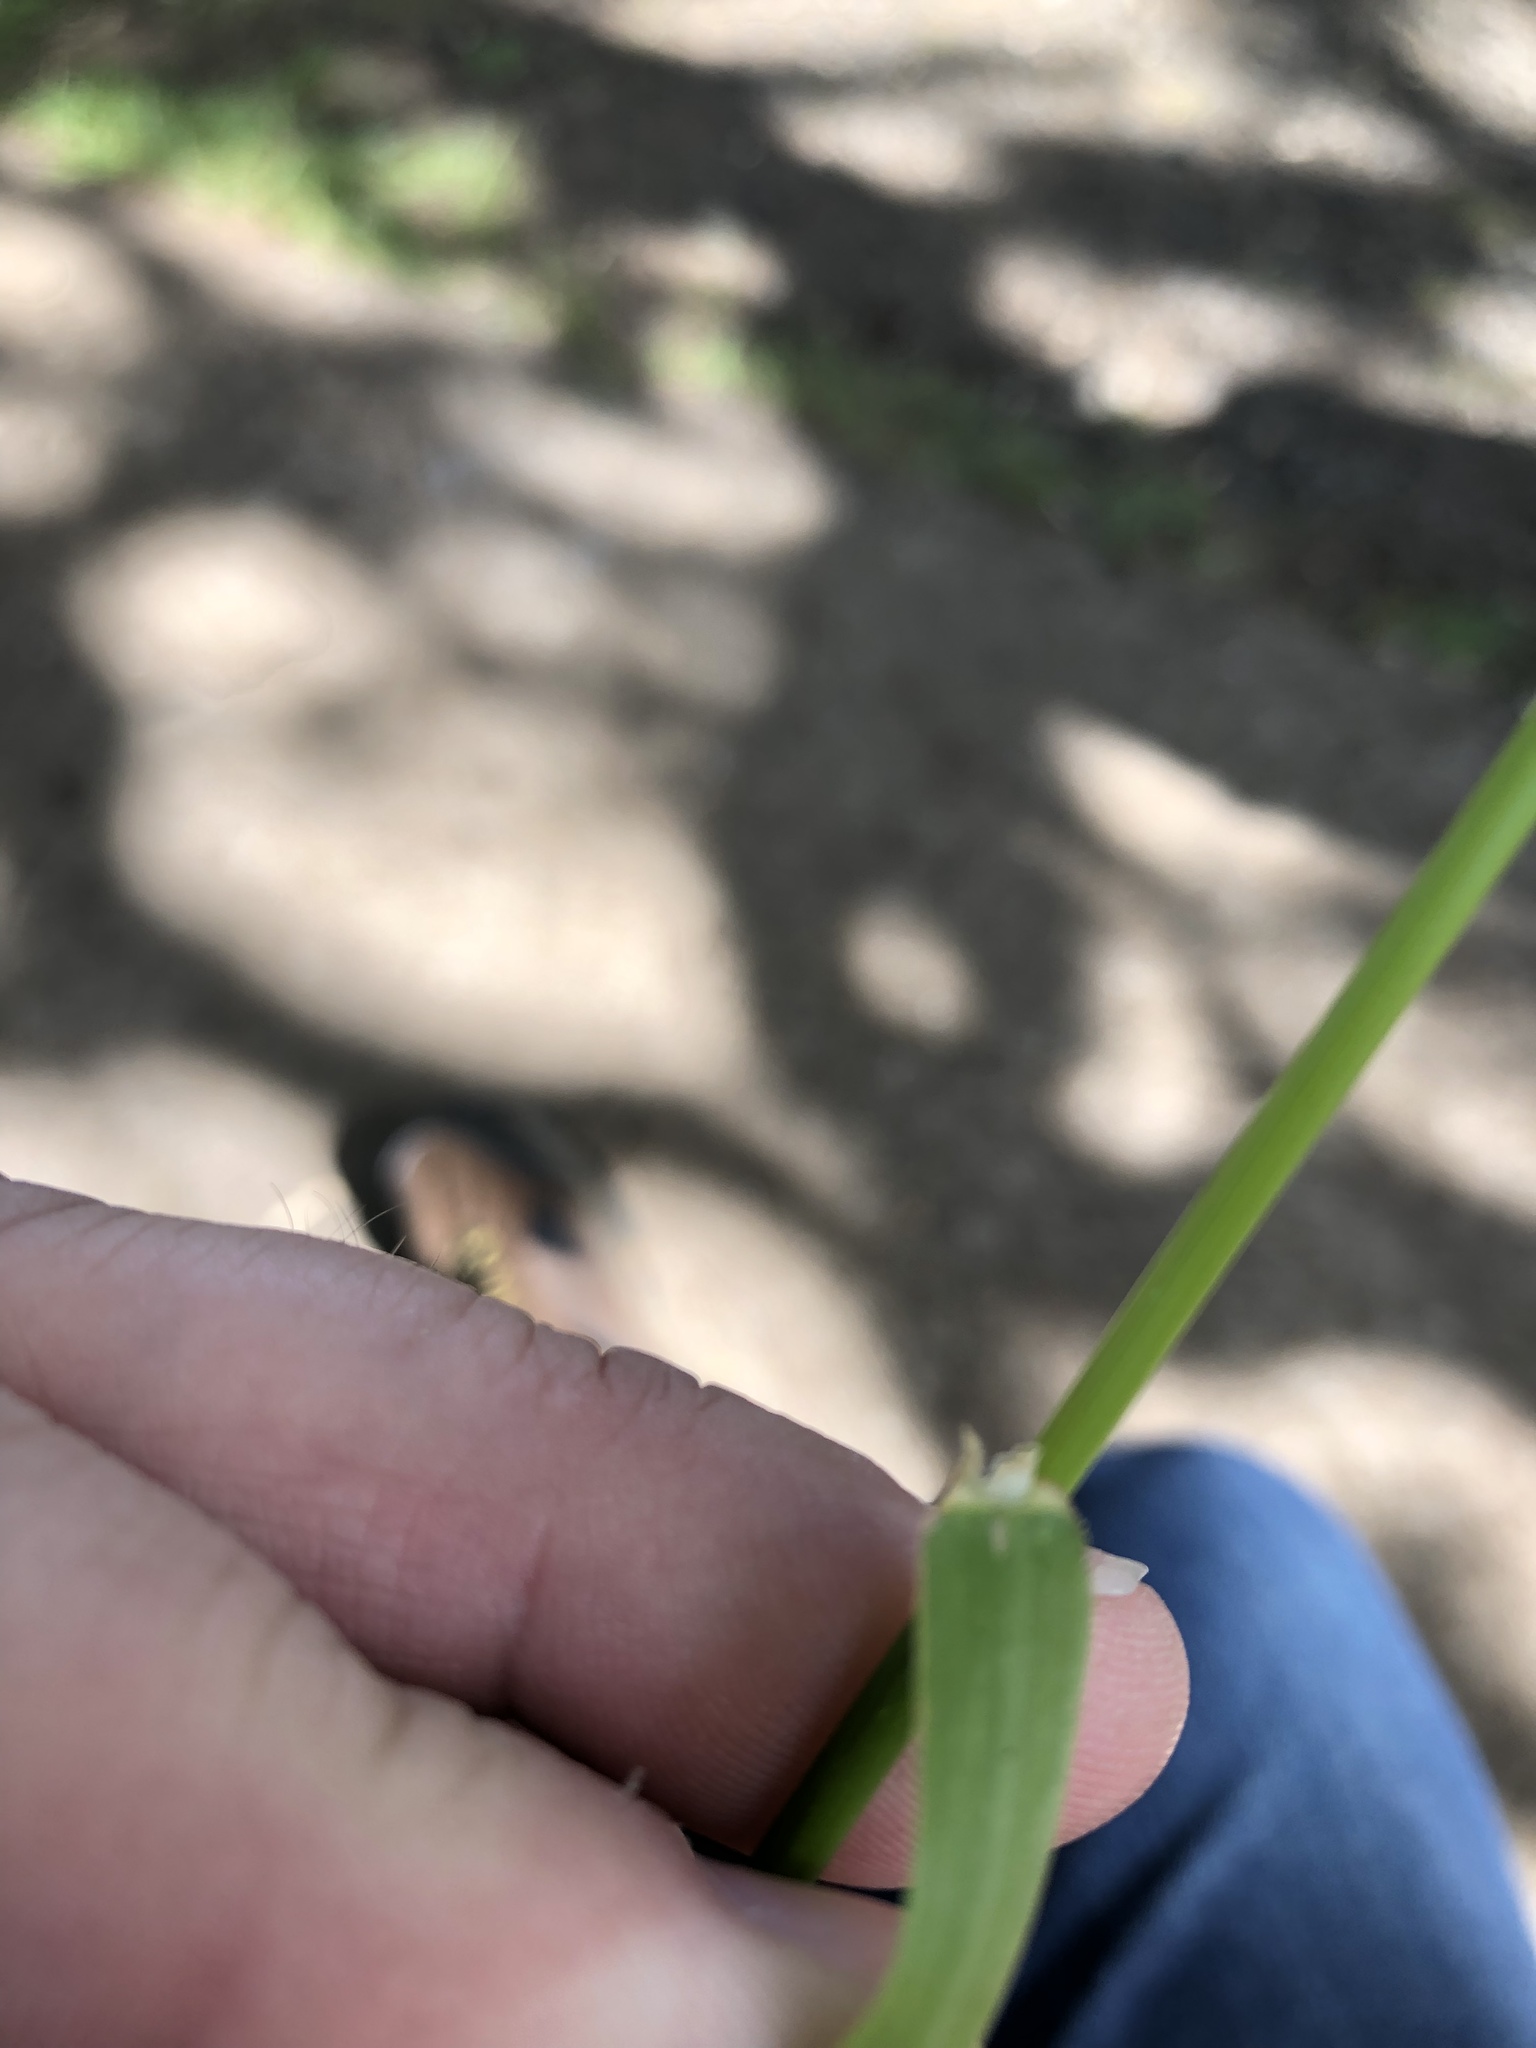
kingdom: Plantae
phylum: Tracheophyta
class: Liliopsida
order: Poales
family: Poaceae
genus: Alopecurus
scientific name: Alopecurus pratensis
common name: Meadow foxtail
